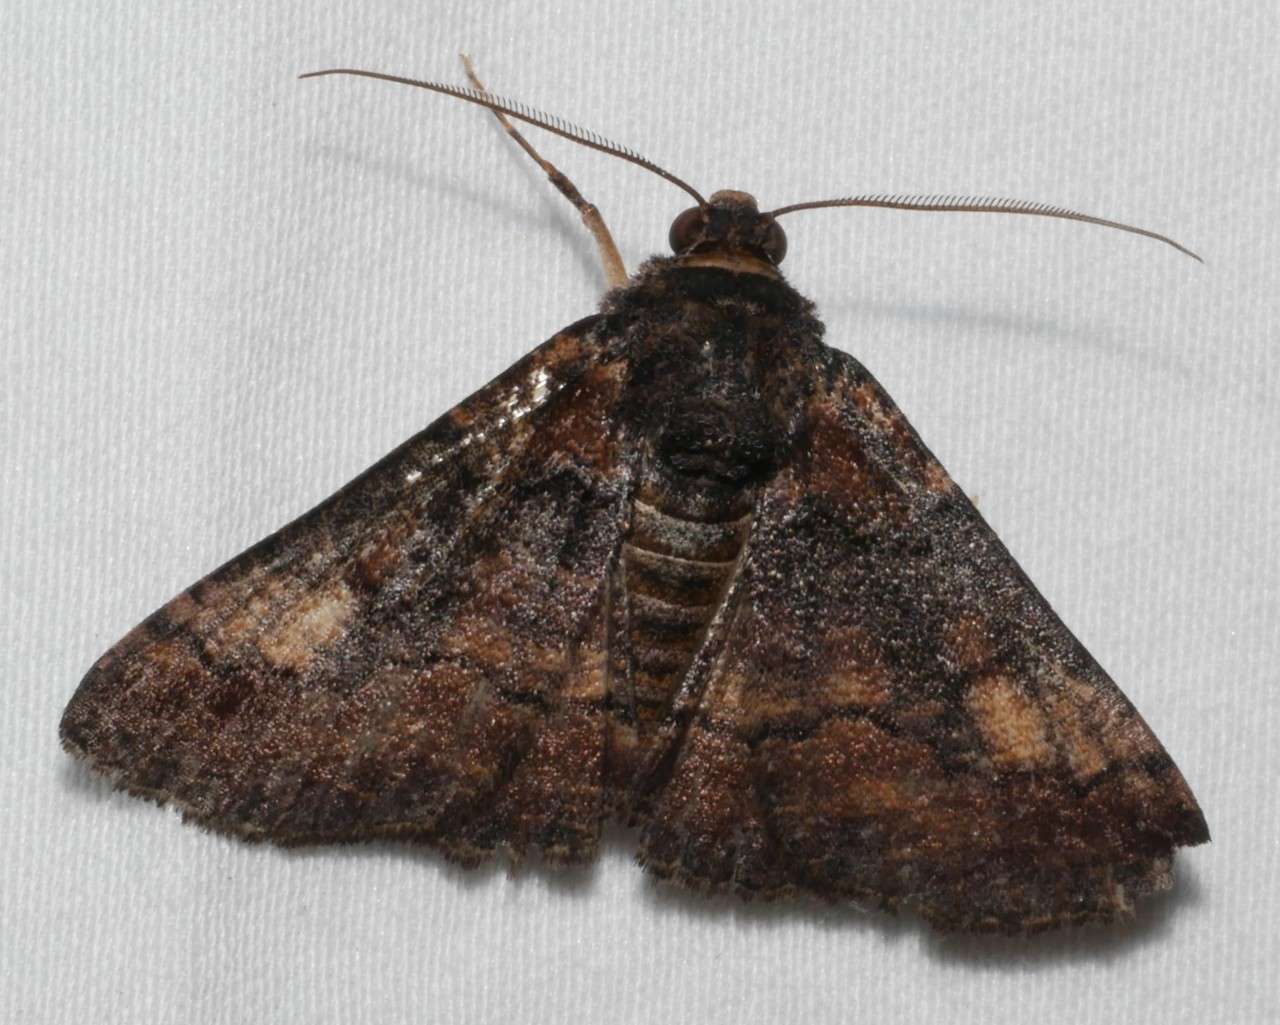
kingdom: Animalia
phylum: Arthropoda
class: Insecta
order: Lepidoptera
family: Geometridae
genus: Gastrinopa
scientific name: Gastrinopa xylistis
